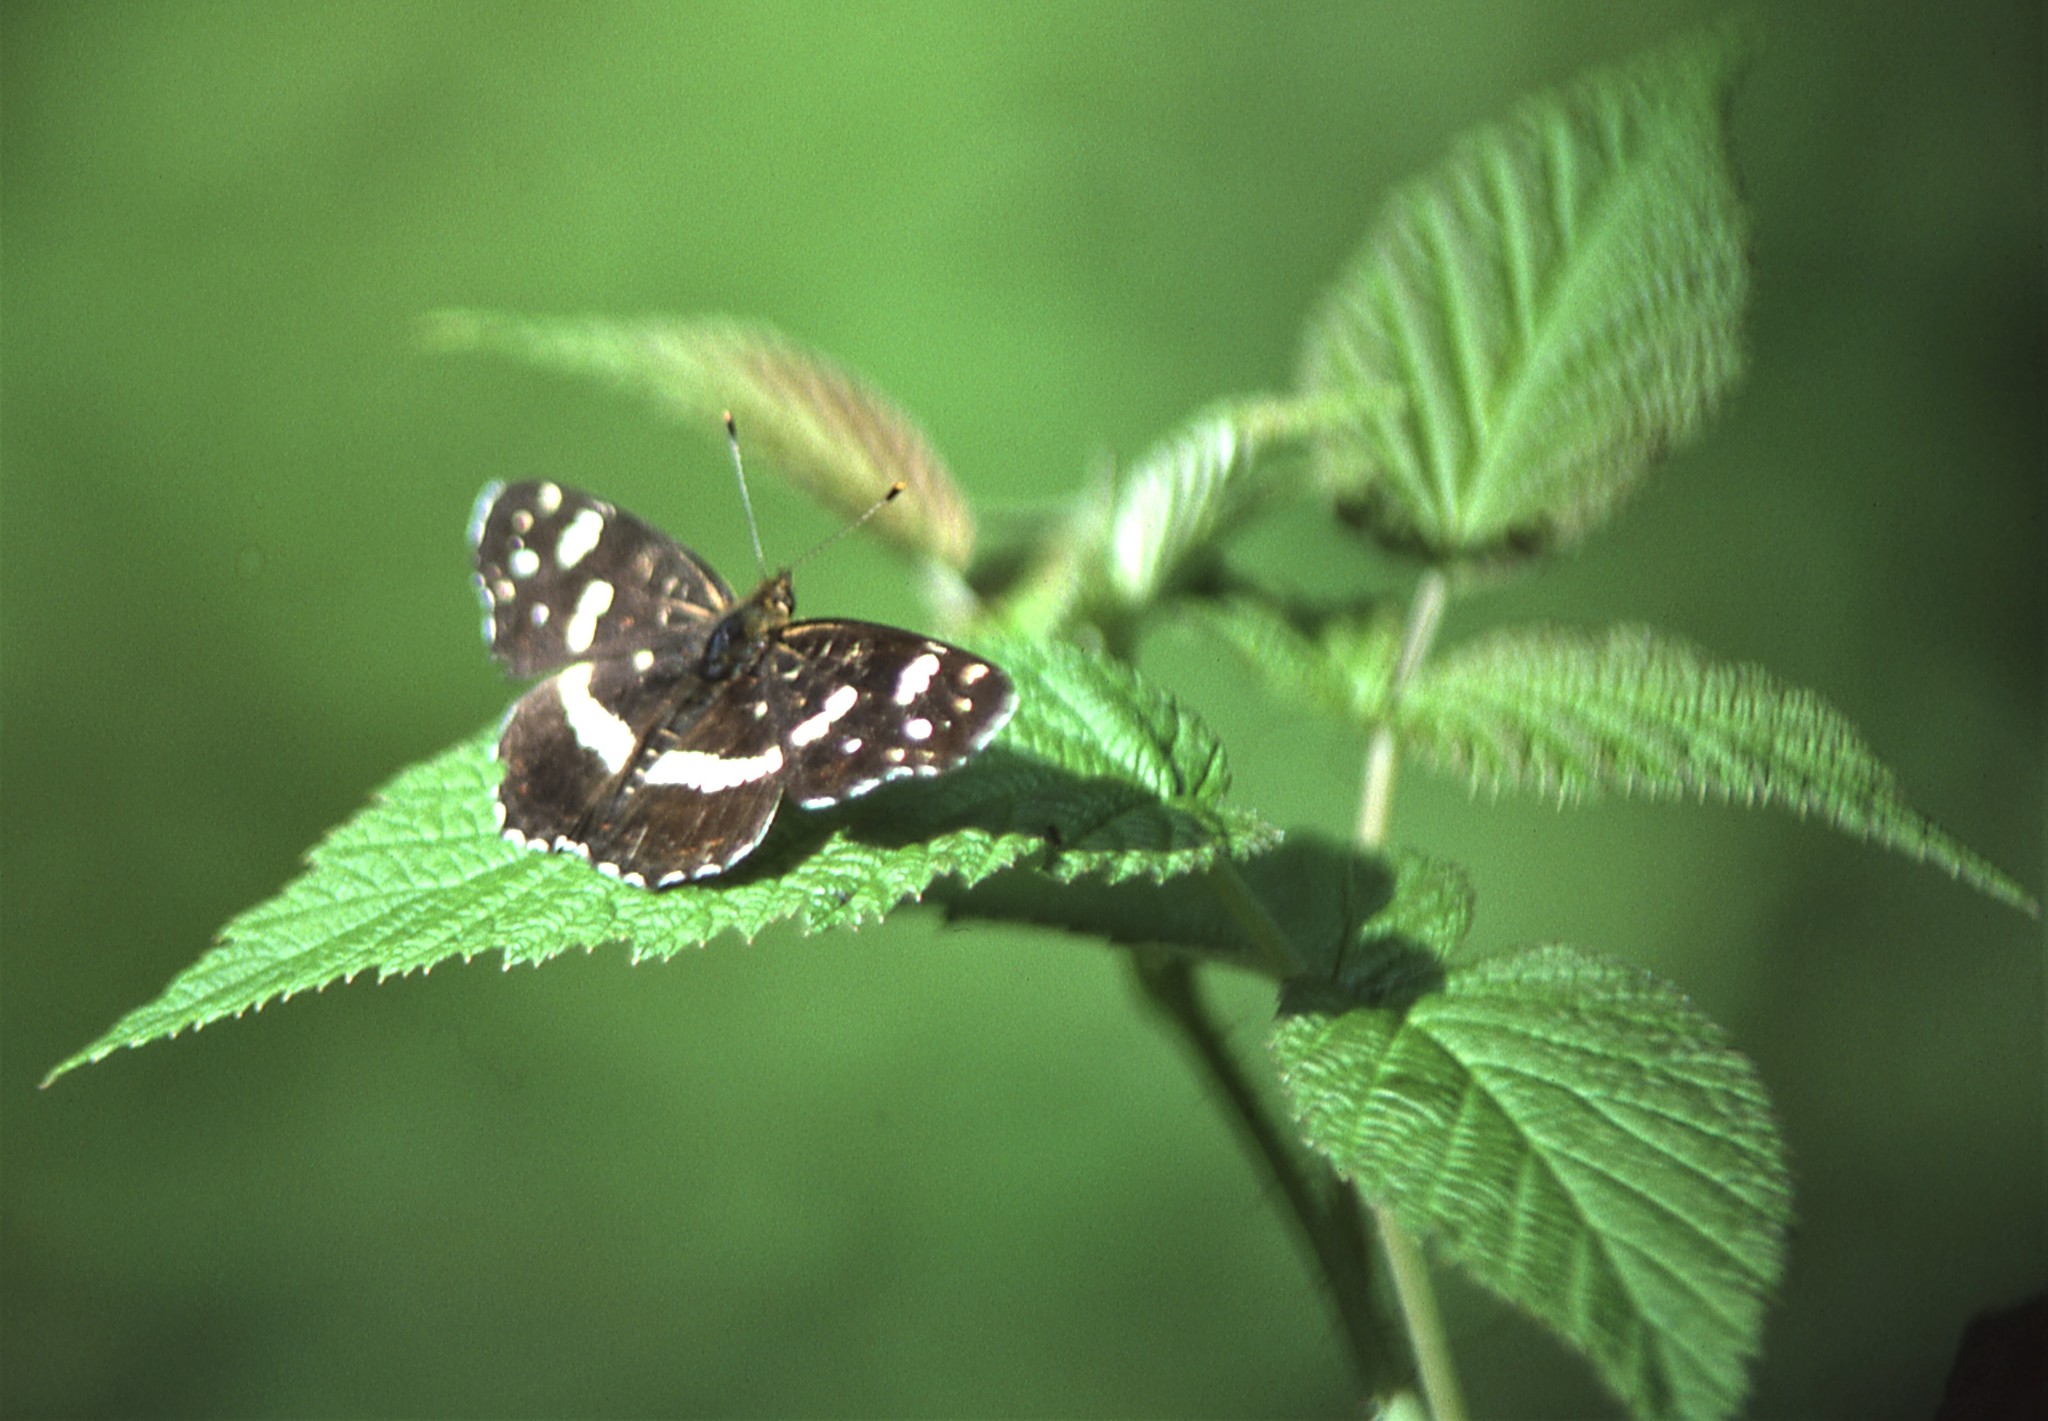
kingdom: Animalia
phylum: Arthropoda
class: Insecta
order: Lepidoptera
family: Nymphalidae
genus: Araschnia
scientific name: Araschnia levana
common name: Map butterfly
